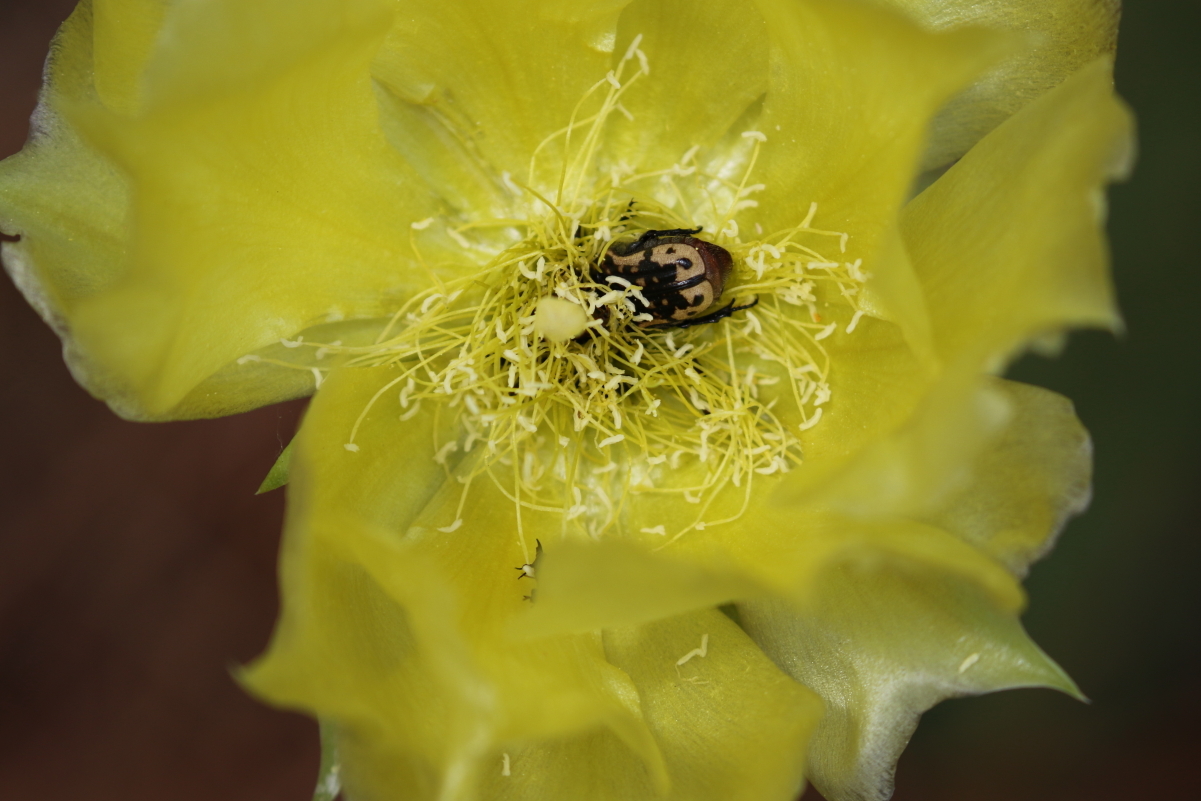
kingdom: Animalia
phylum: Arthropoda
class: Insecta
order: Coleoptera
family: Scarabaeidae
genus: Euphoria
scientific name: Euphoria kernii
